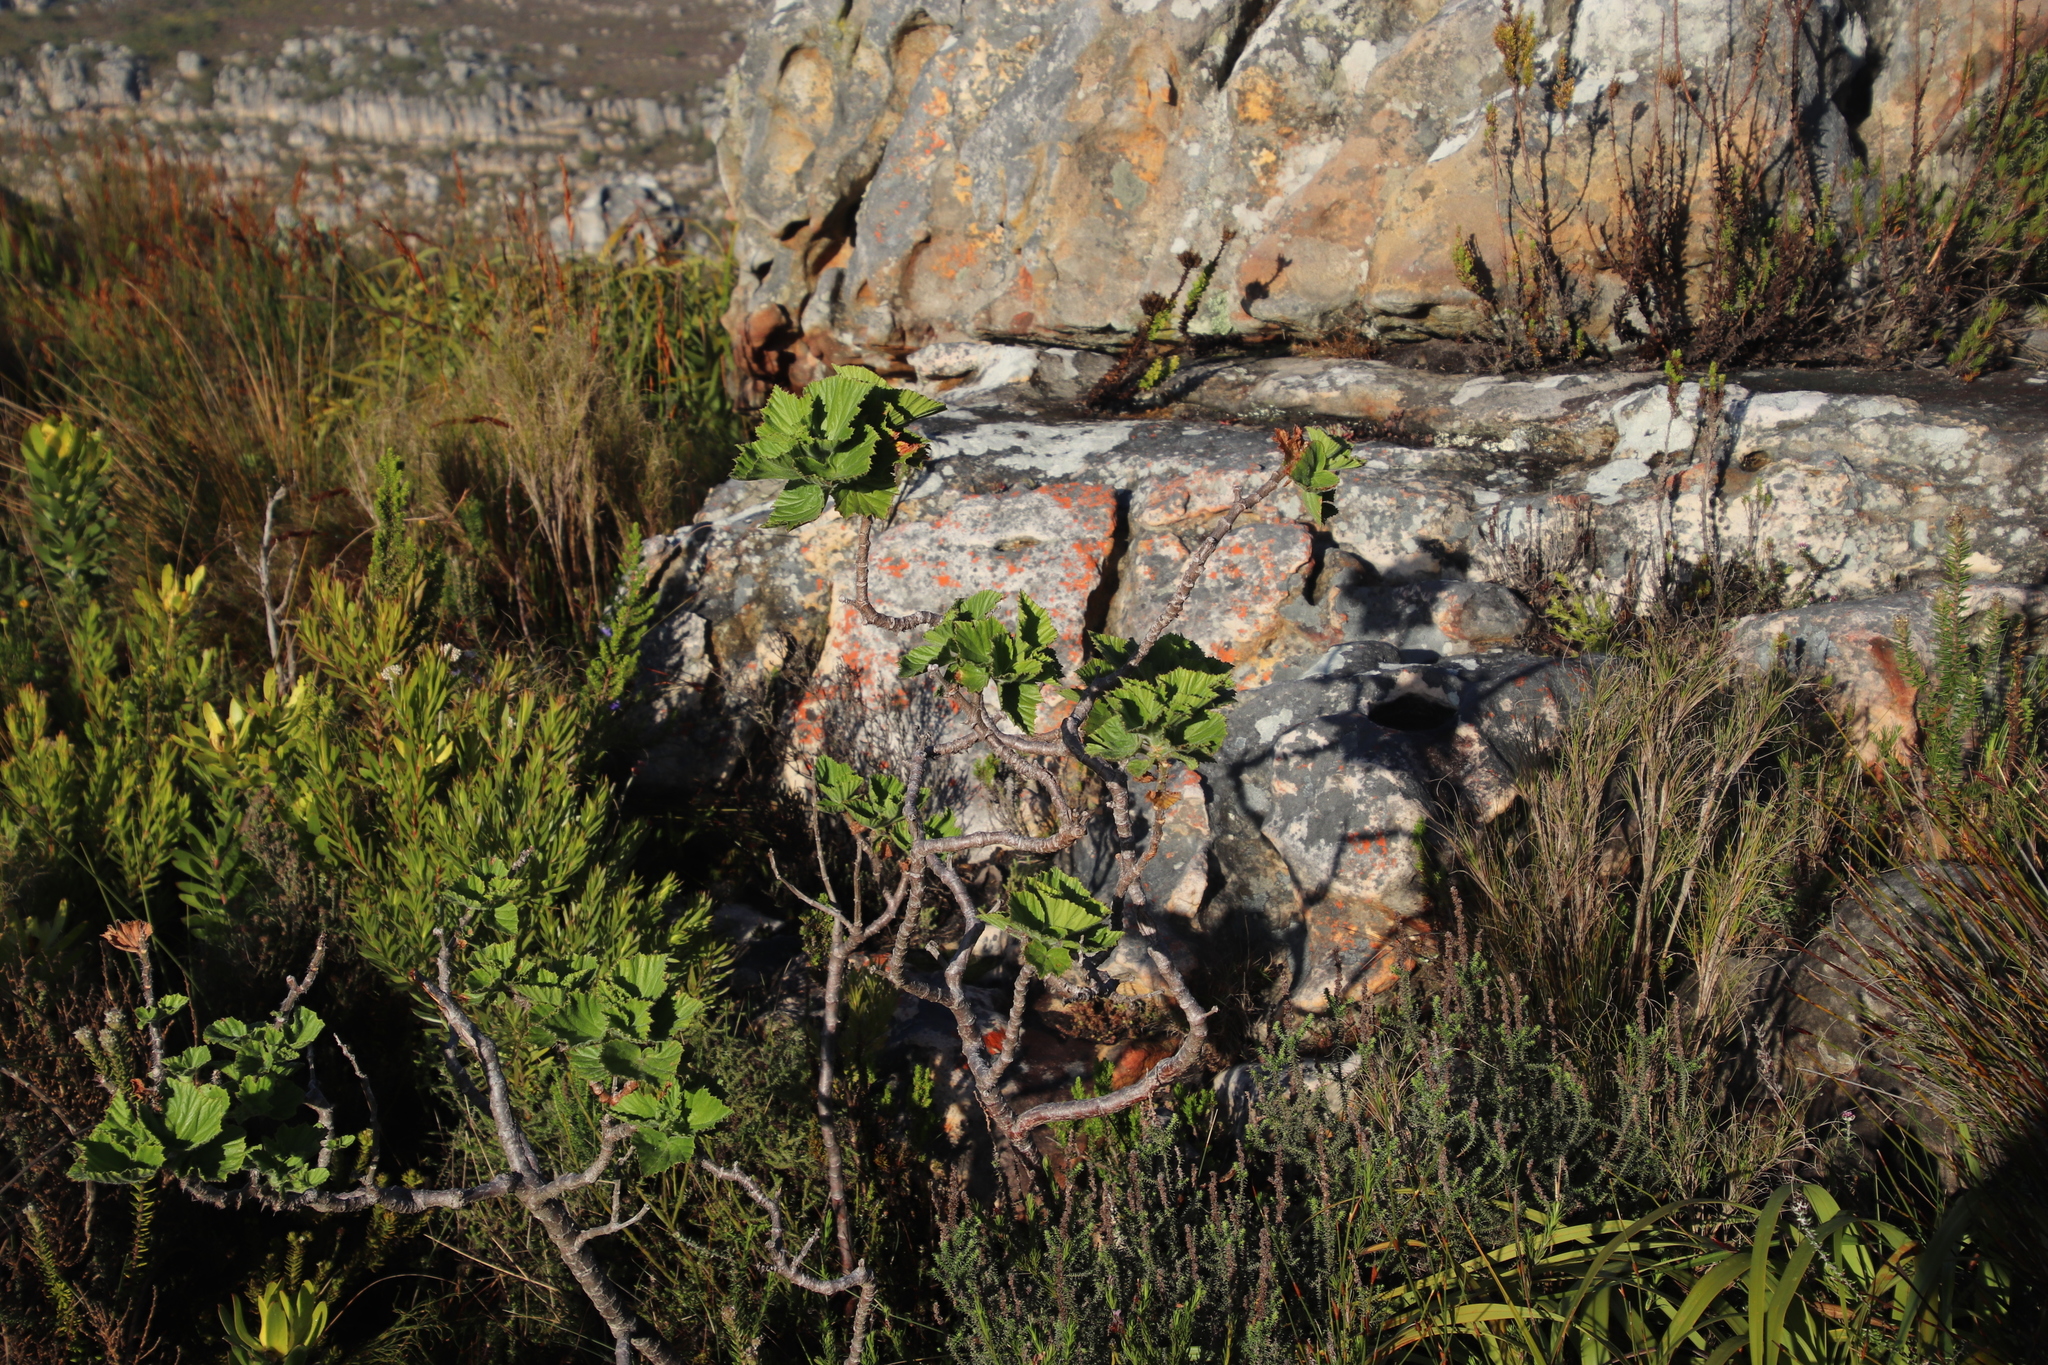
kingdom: Plantae
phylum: Tracheophyta
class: Magnoliopsida
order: Geraniales
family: Geraniaceae
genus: Pelargonium
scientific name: Pelargonium cucullatum
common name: Tree pelargonium
